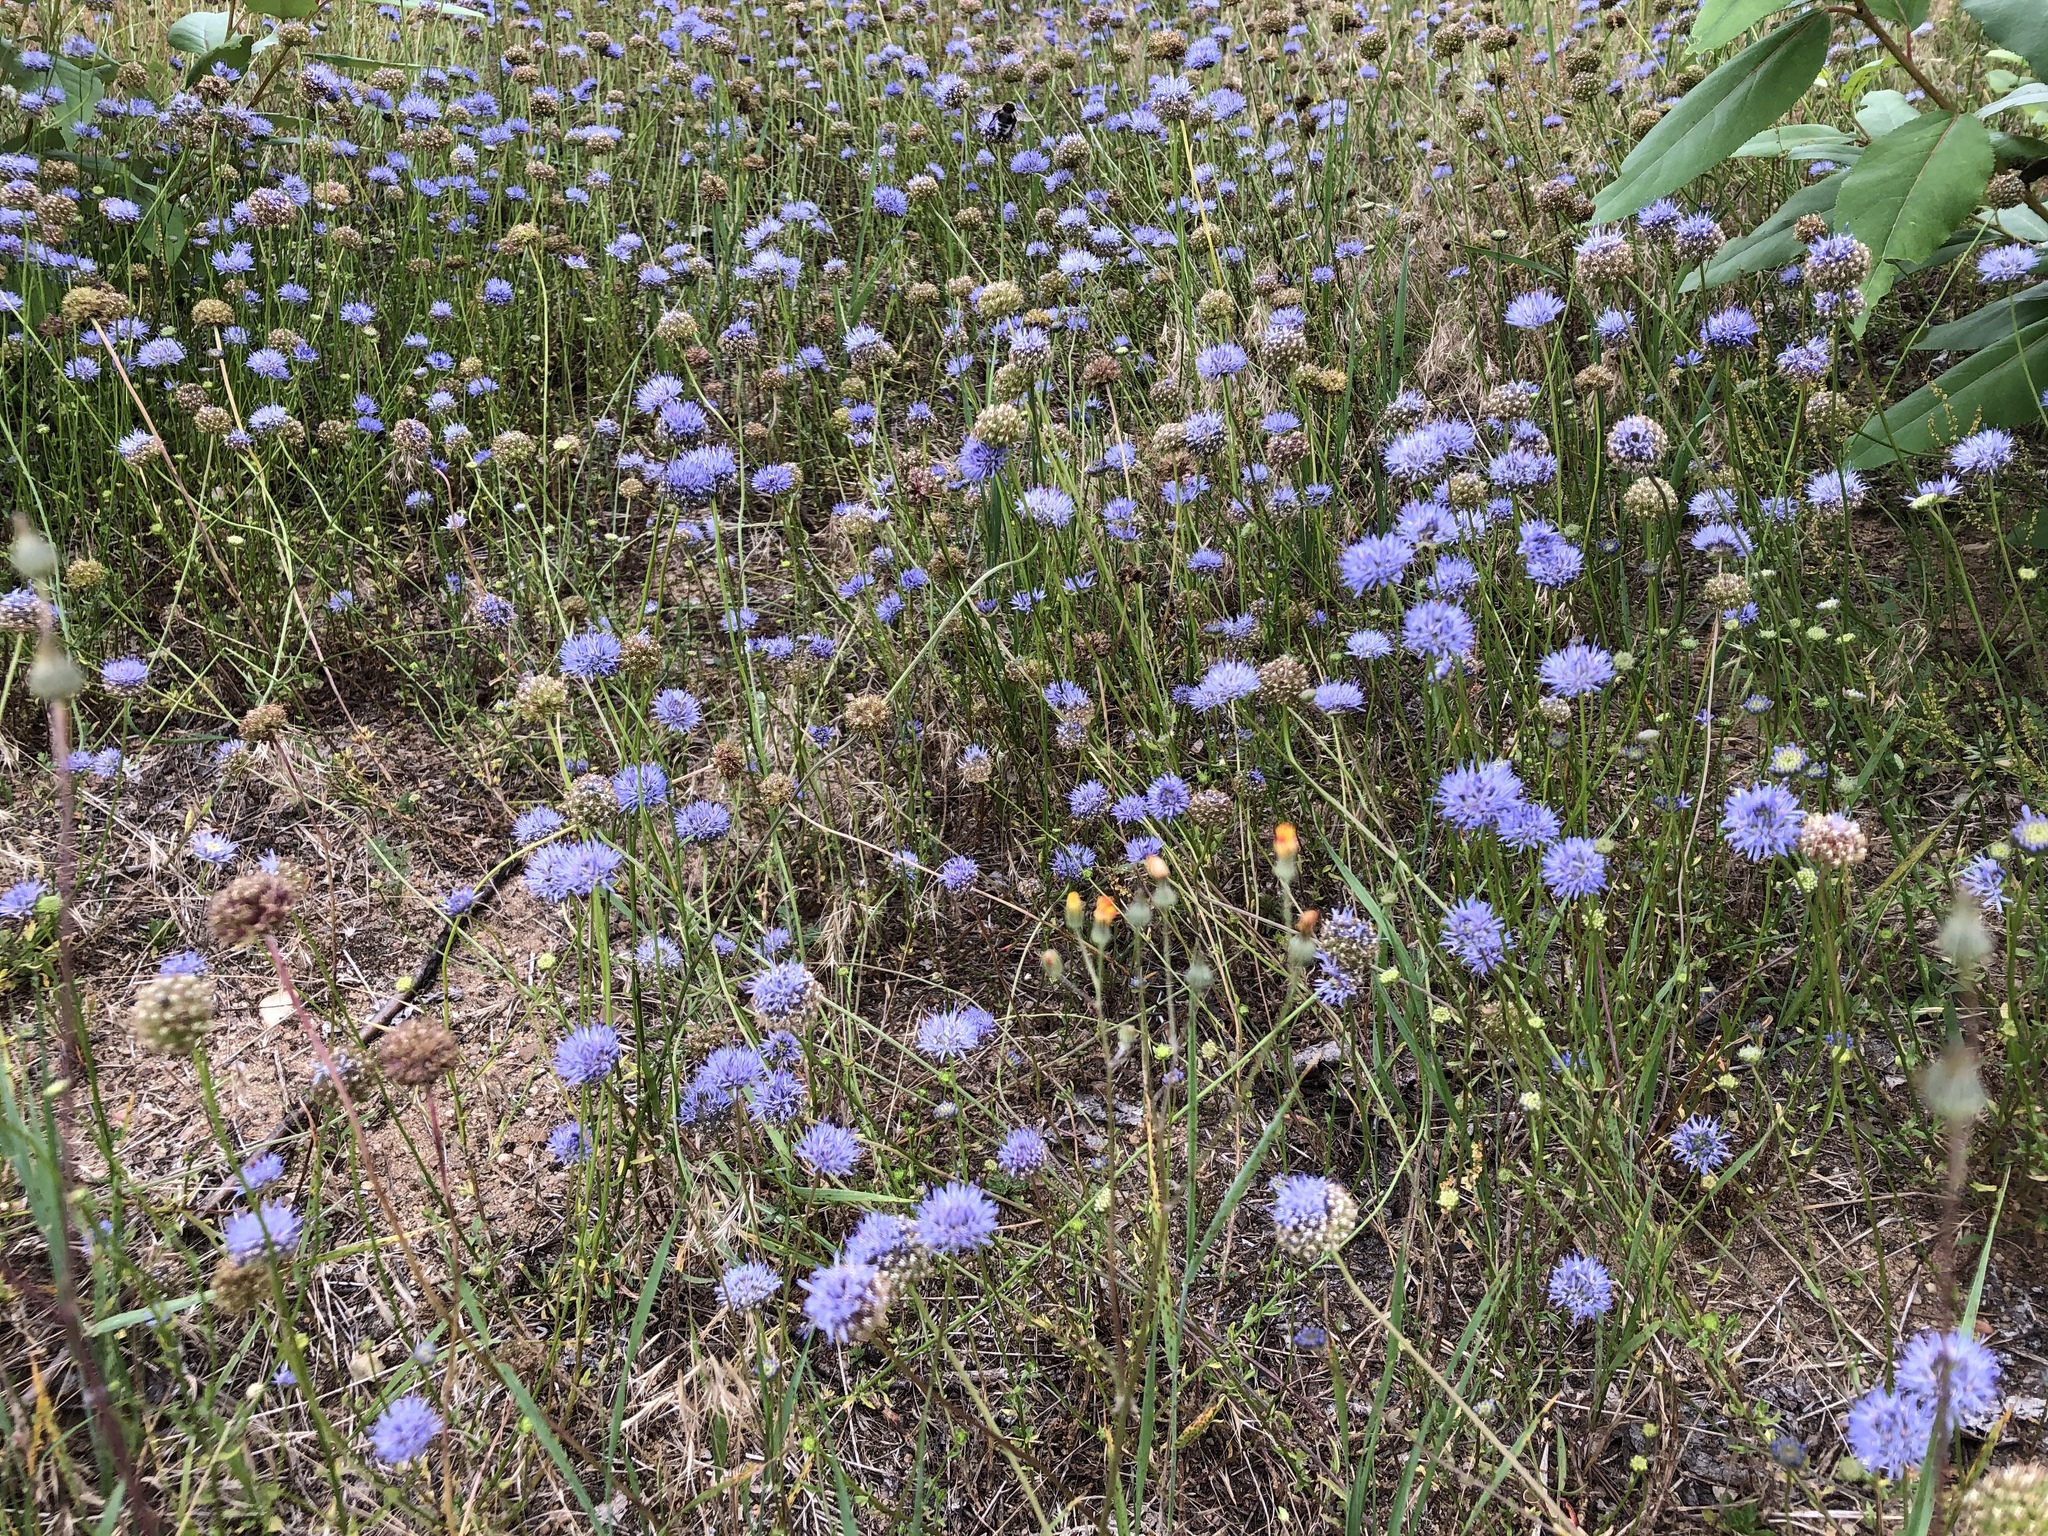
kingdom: Plantae
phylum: Tracheophyta
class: Magnoliopsida
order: Asterales
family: Campanulaceae
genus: Jasione
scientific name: Jasione montana
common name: Sheep's-bit
